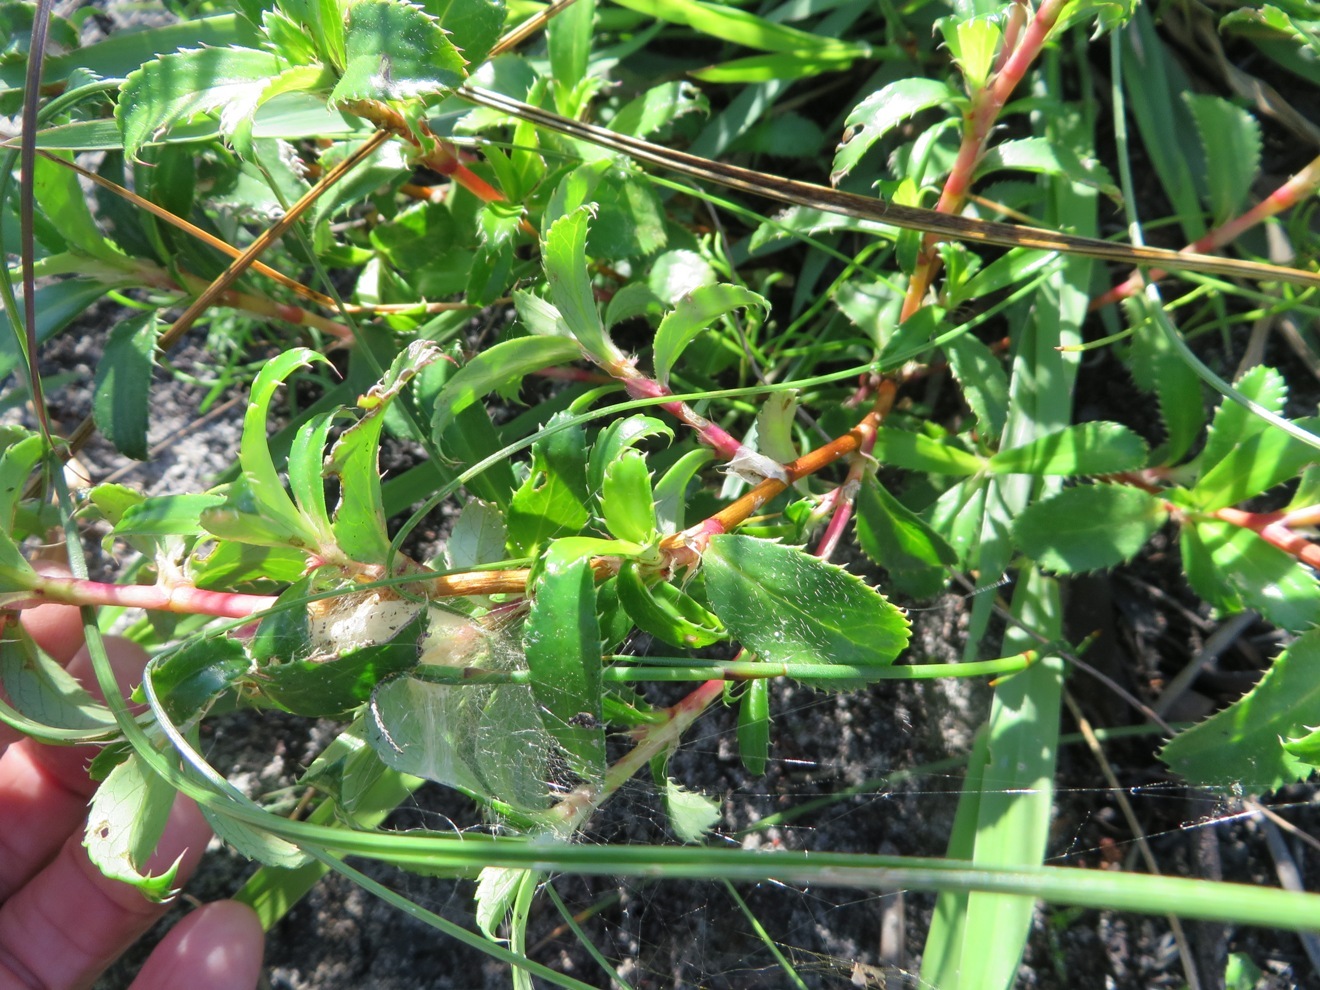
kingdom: Plantae
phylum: Tracheophyta
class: Magnoliopsida
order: Rosales
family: Rosaceae
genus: Cliffortia
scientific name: Cliffortia ferruginea
